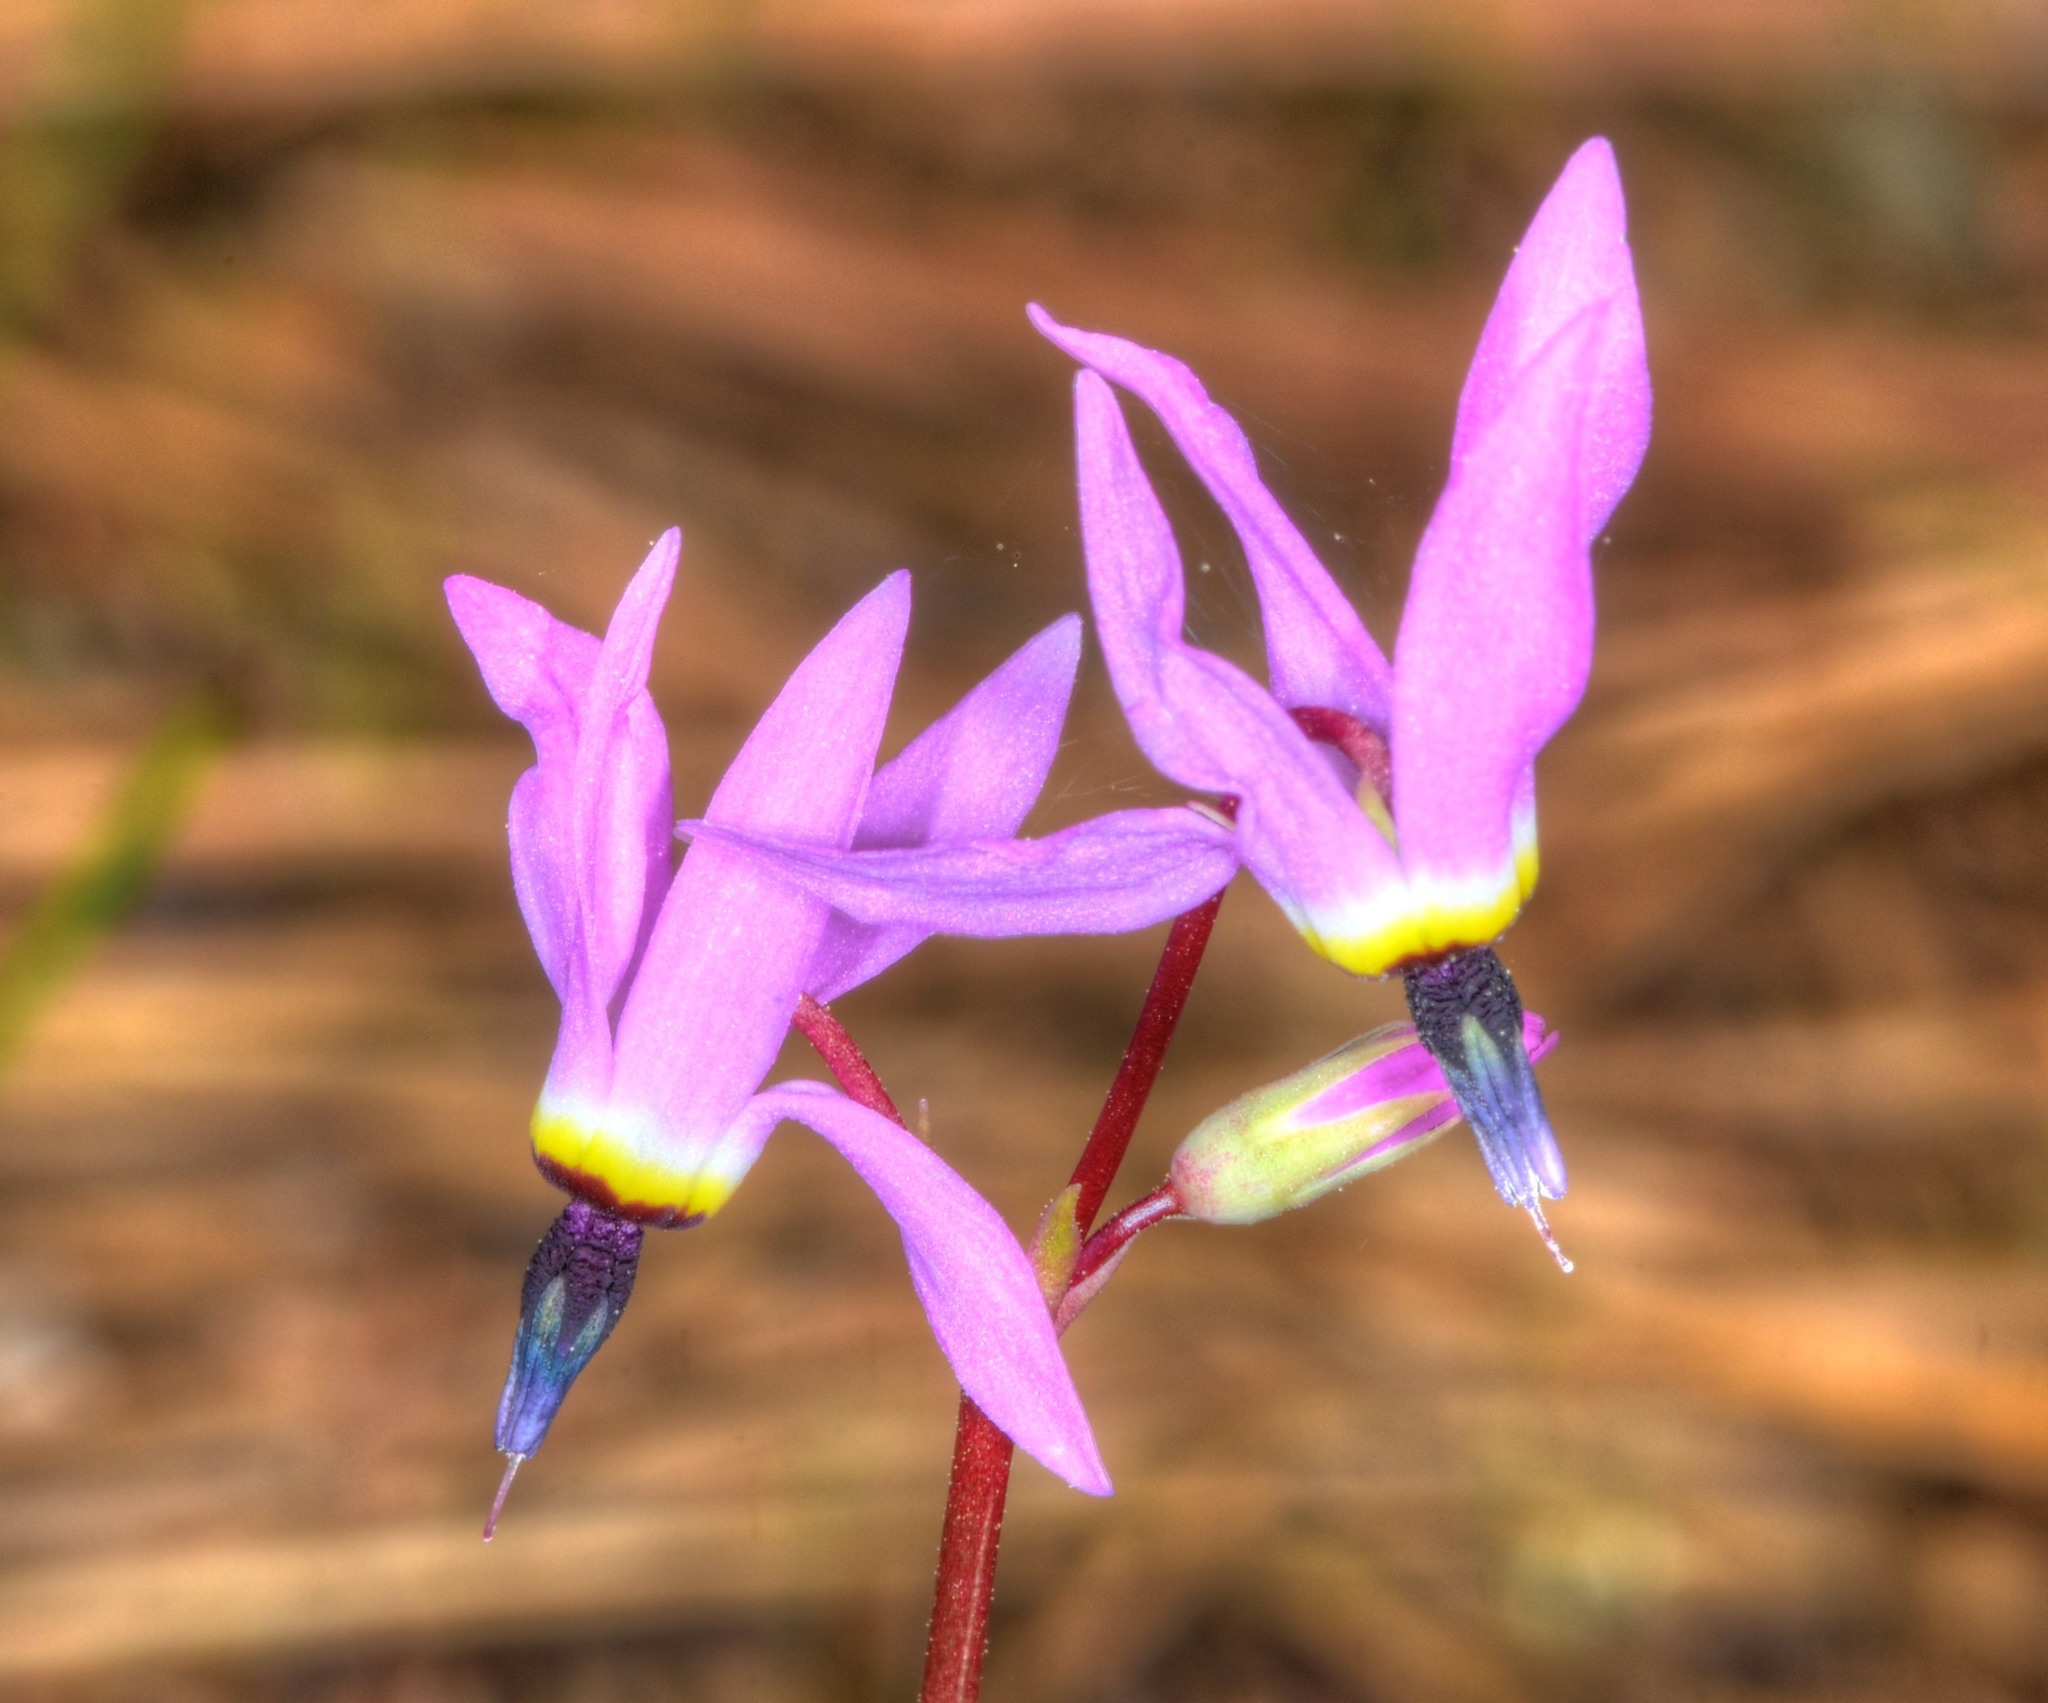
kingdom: Plantae
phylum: Tracheophyta
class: Magnoliopsida
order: Ericales
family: Primulaceae
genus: Dodecatheon
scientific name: Dodecatheon hendersonii
